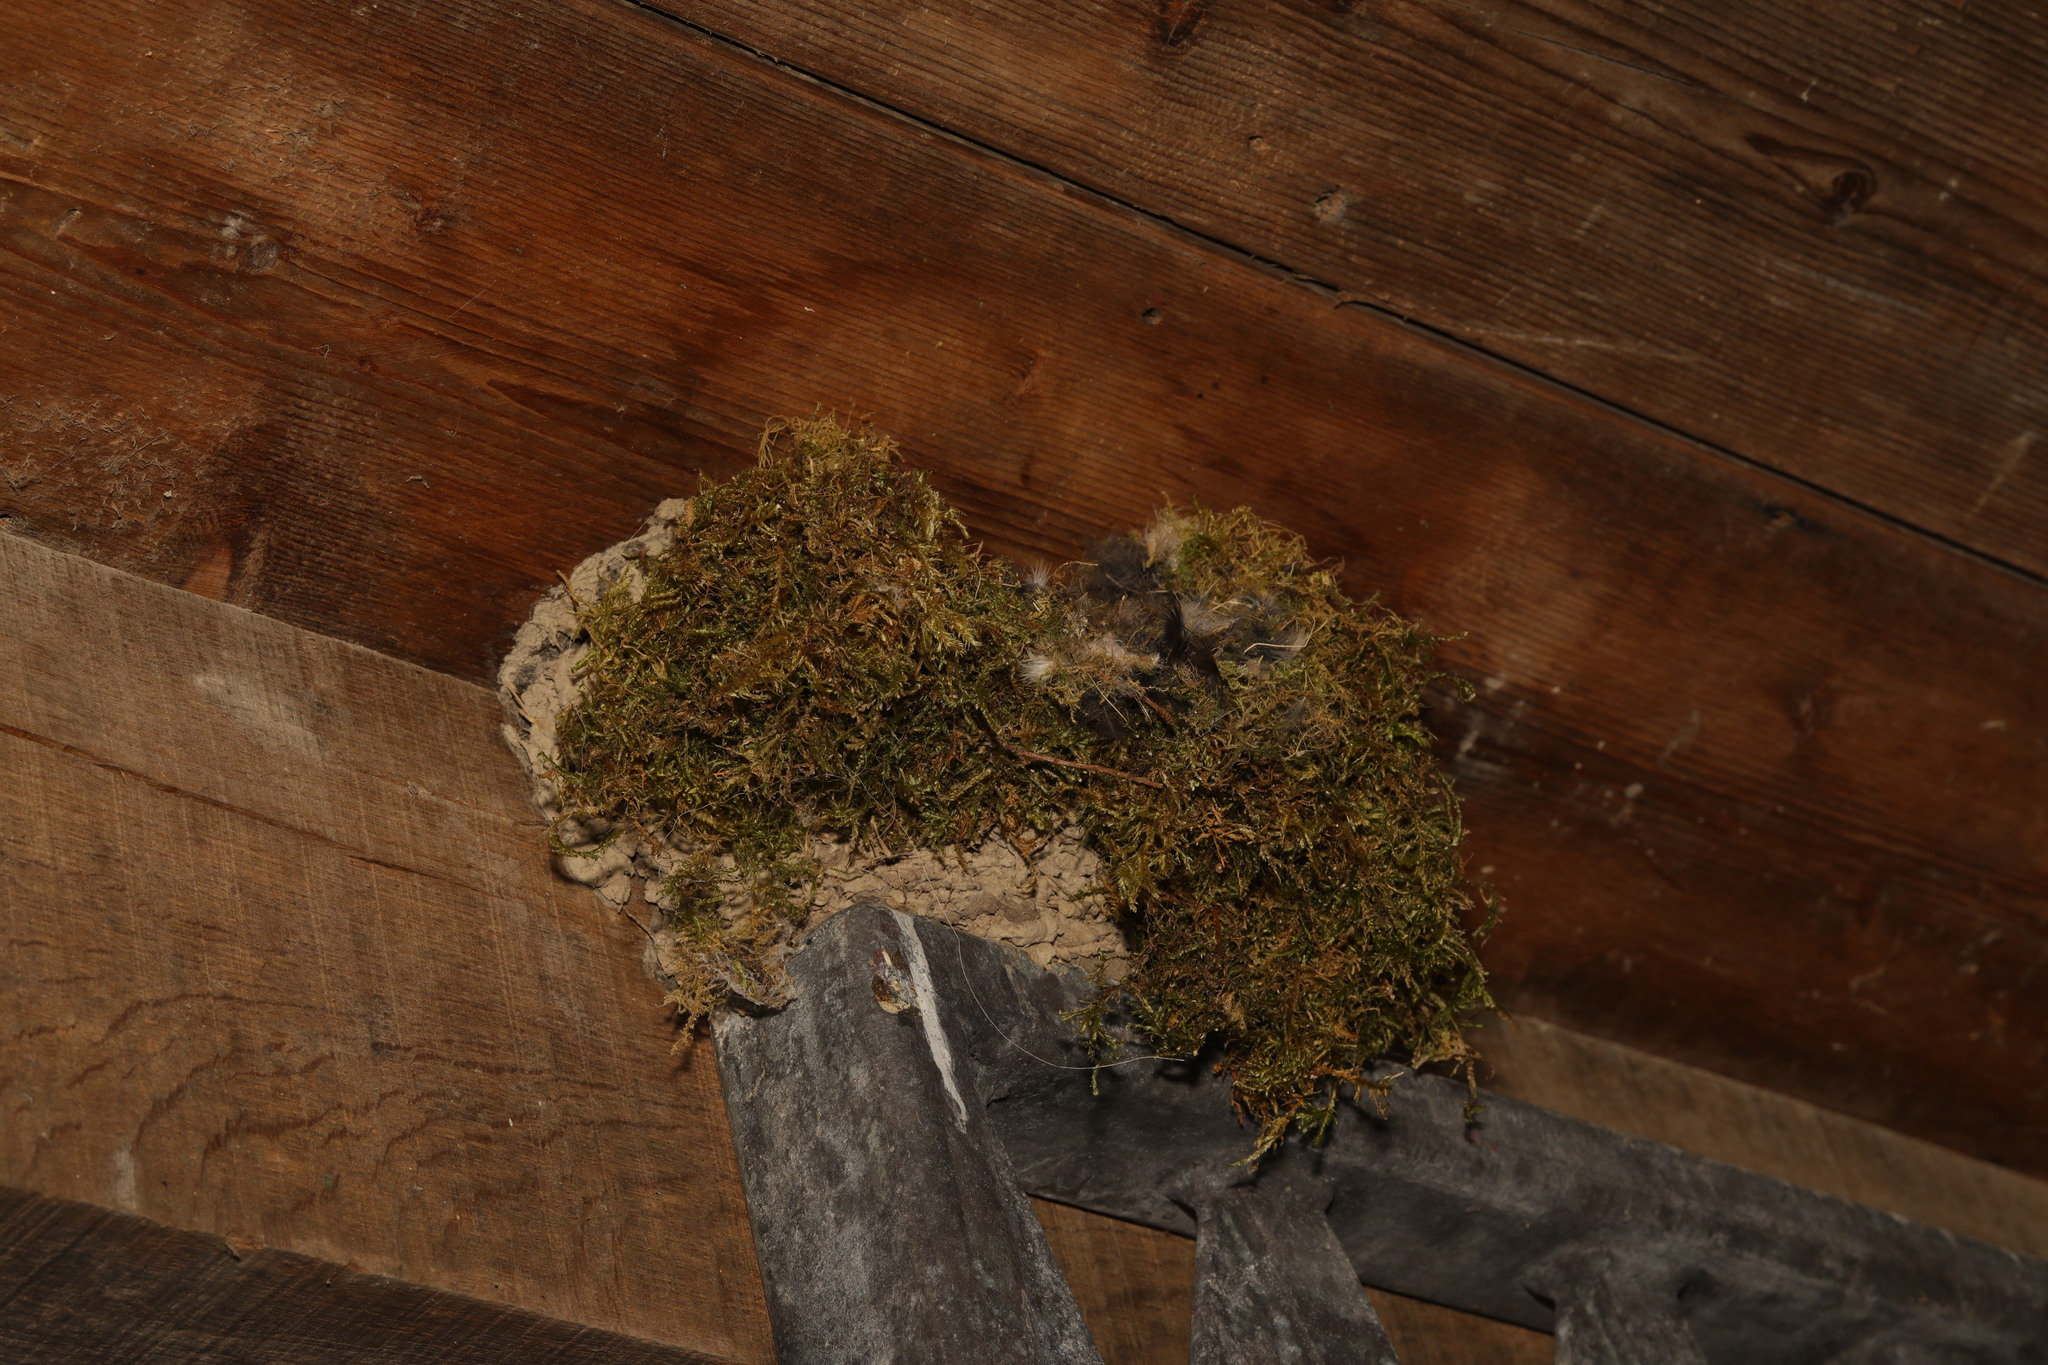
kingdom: Animalia
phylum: Chordata
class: Aves
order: Passeriformes
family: Troglodytidae
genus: Troglodytes
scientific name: Troglodytes troglodytes
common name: Eurasian wren
